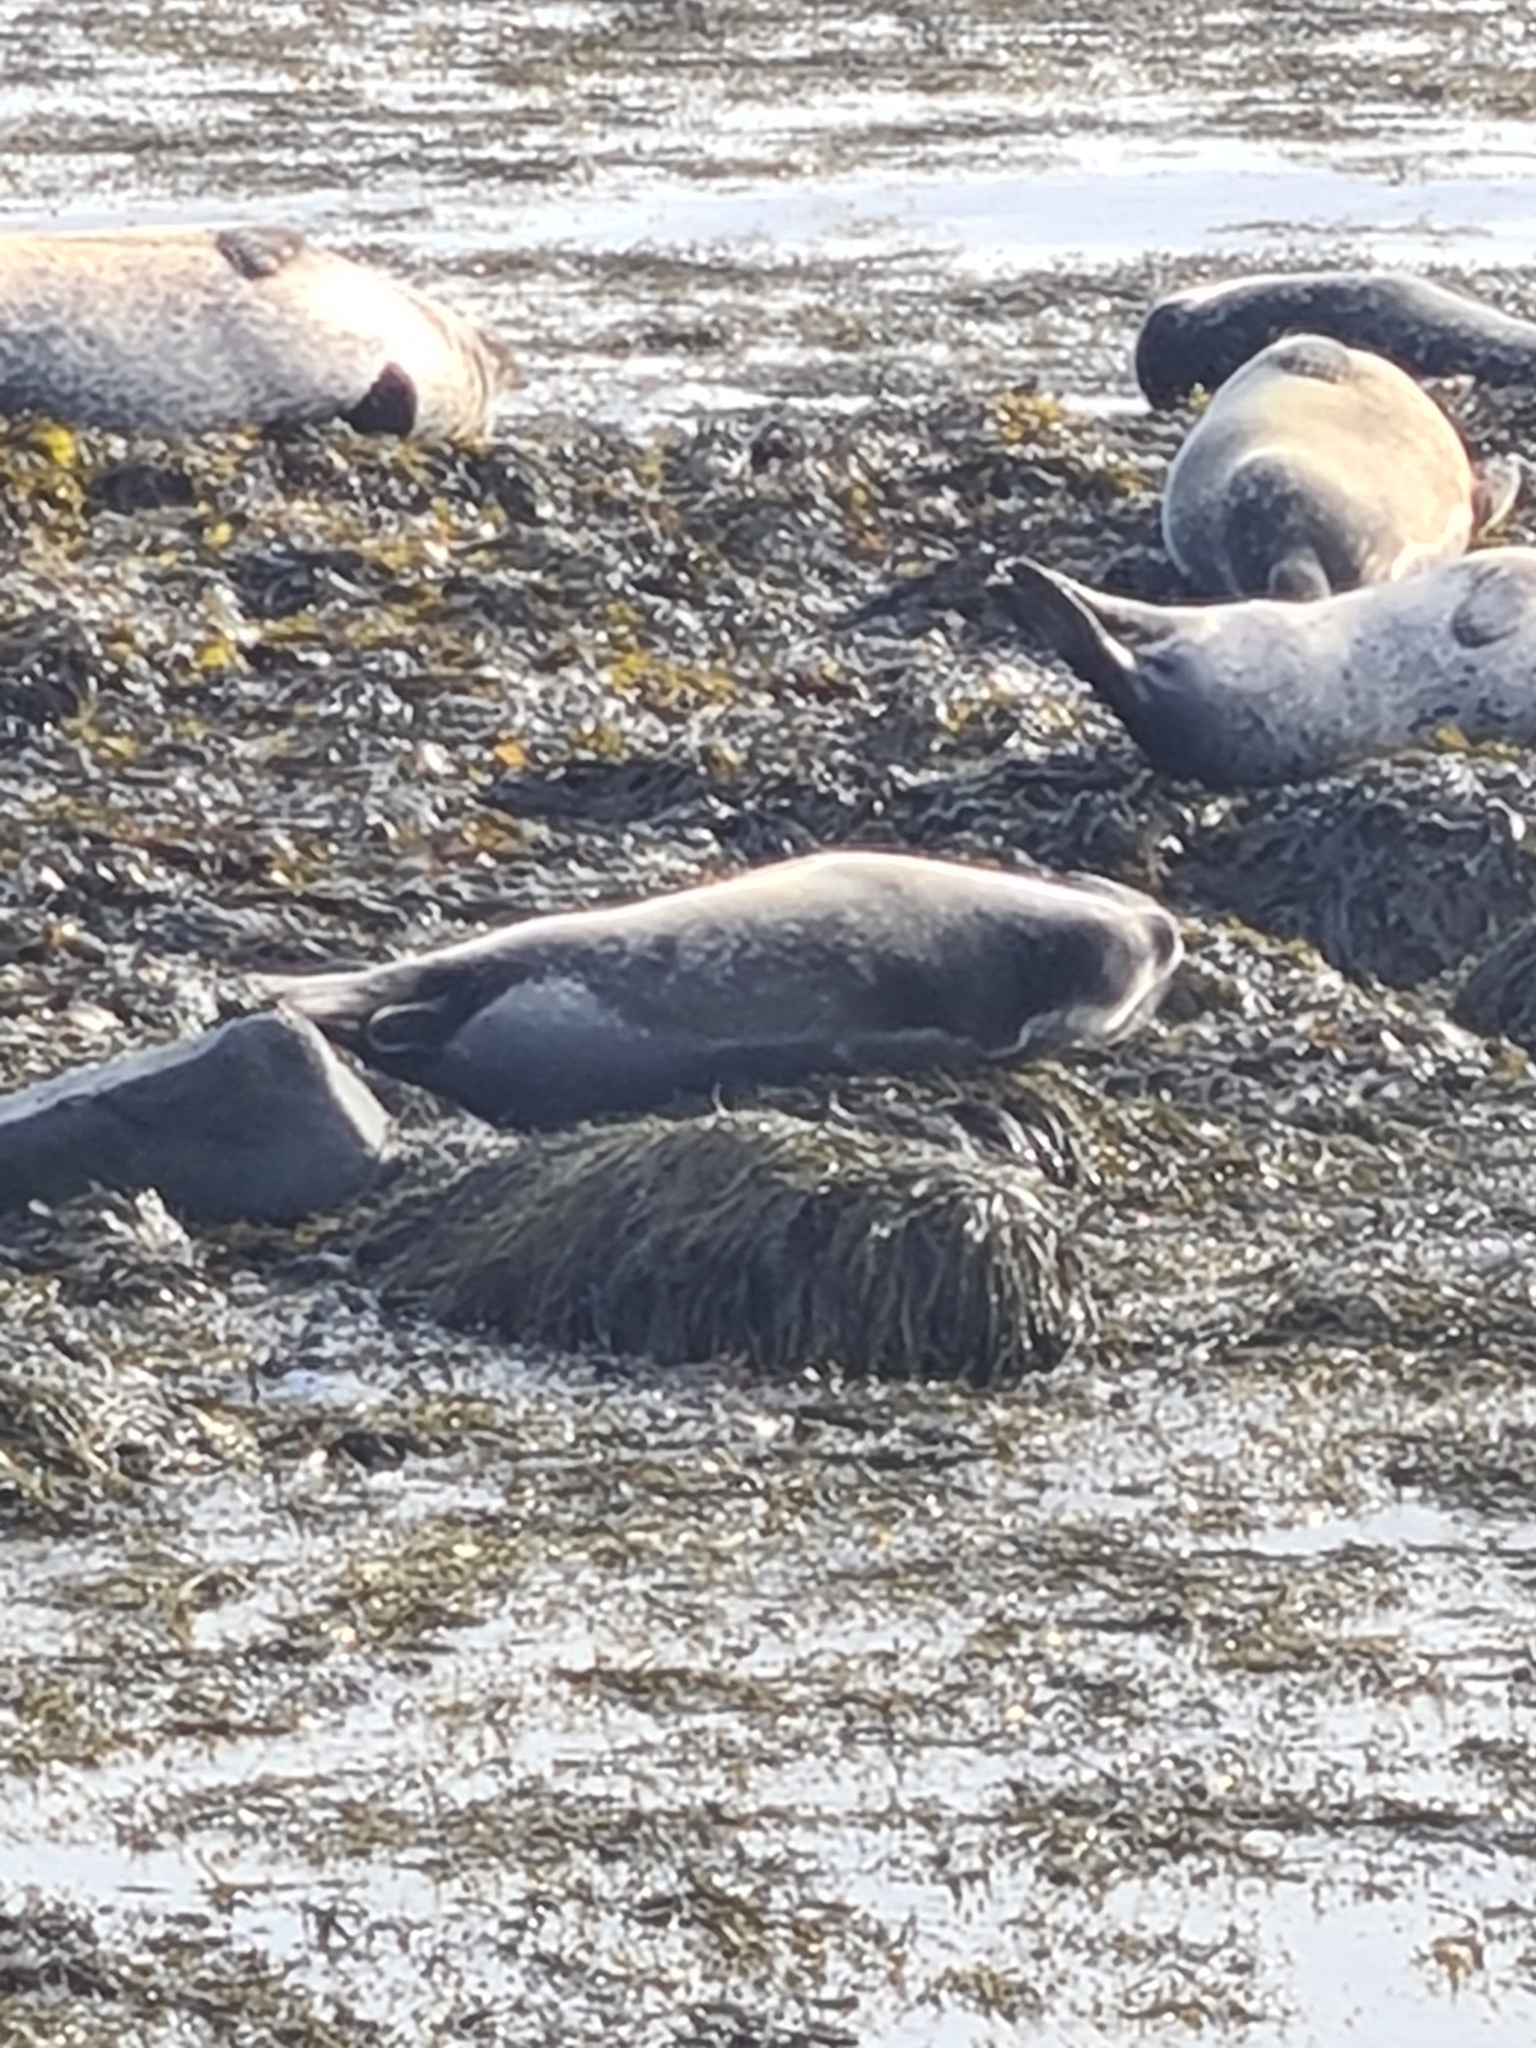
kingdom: Animalia
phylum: Chordata
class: Mammalia
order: Carnivora
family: Phocidae
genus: Phoca
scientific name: Phoca vitulina
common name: Harbor seal
